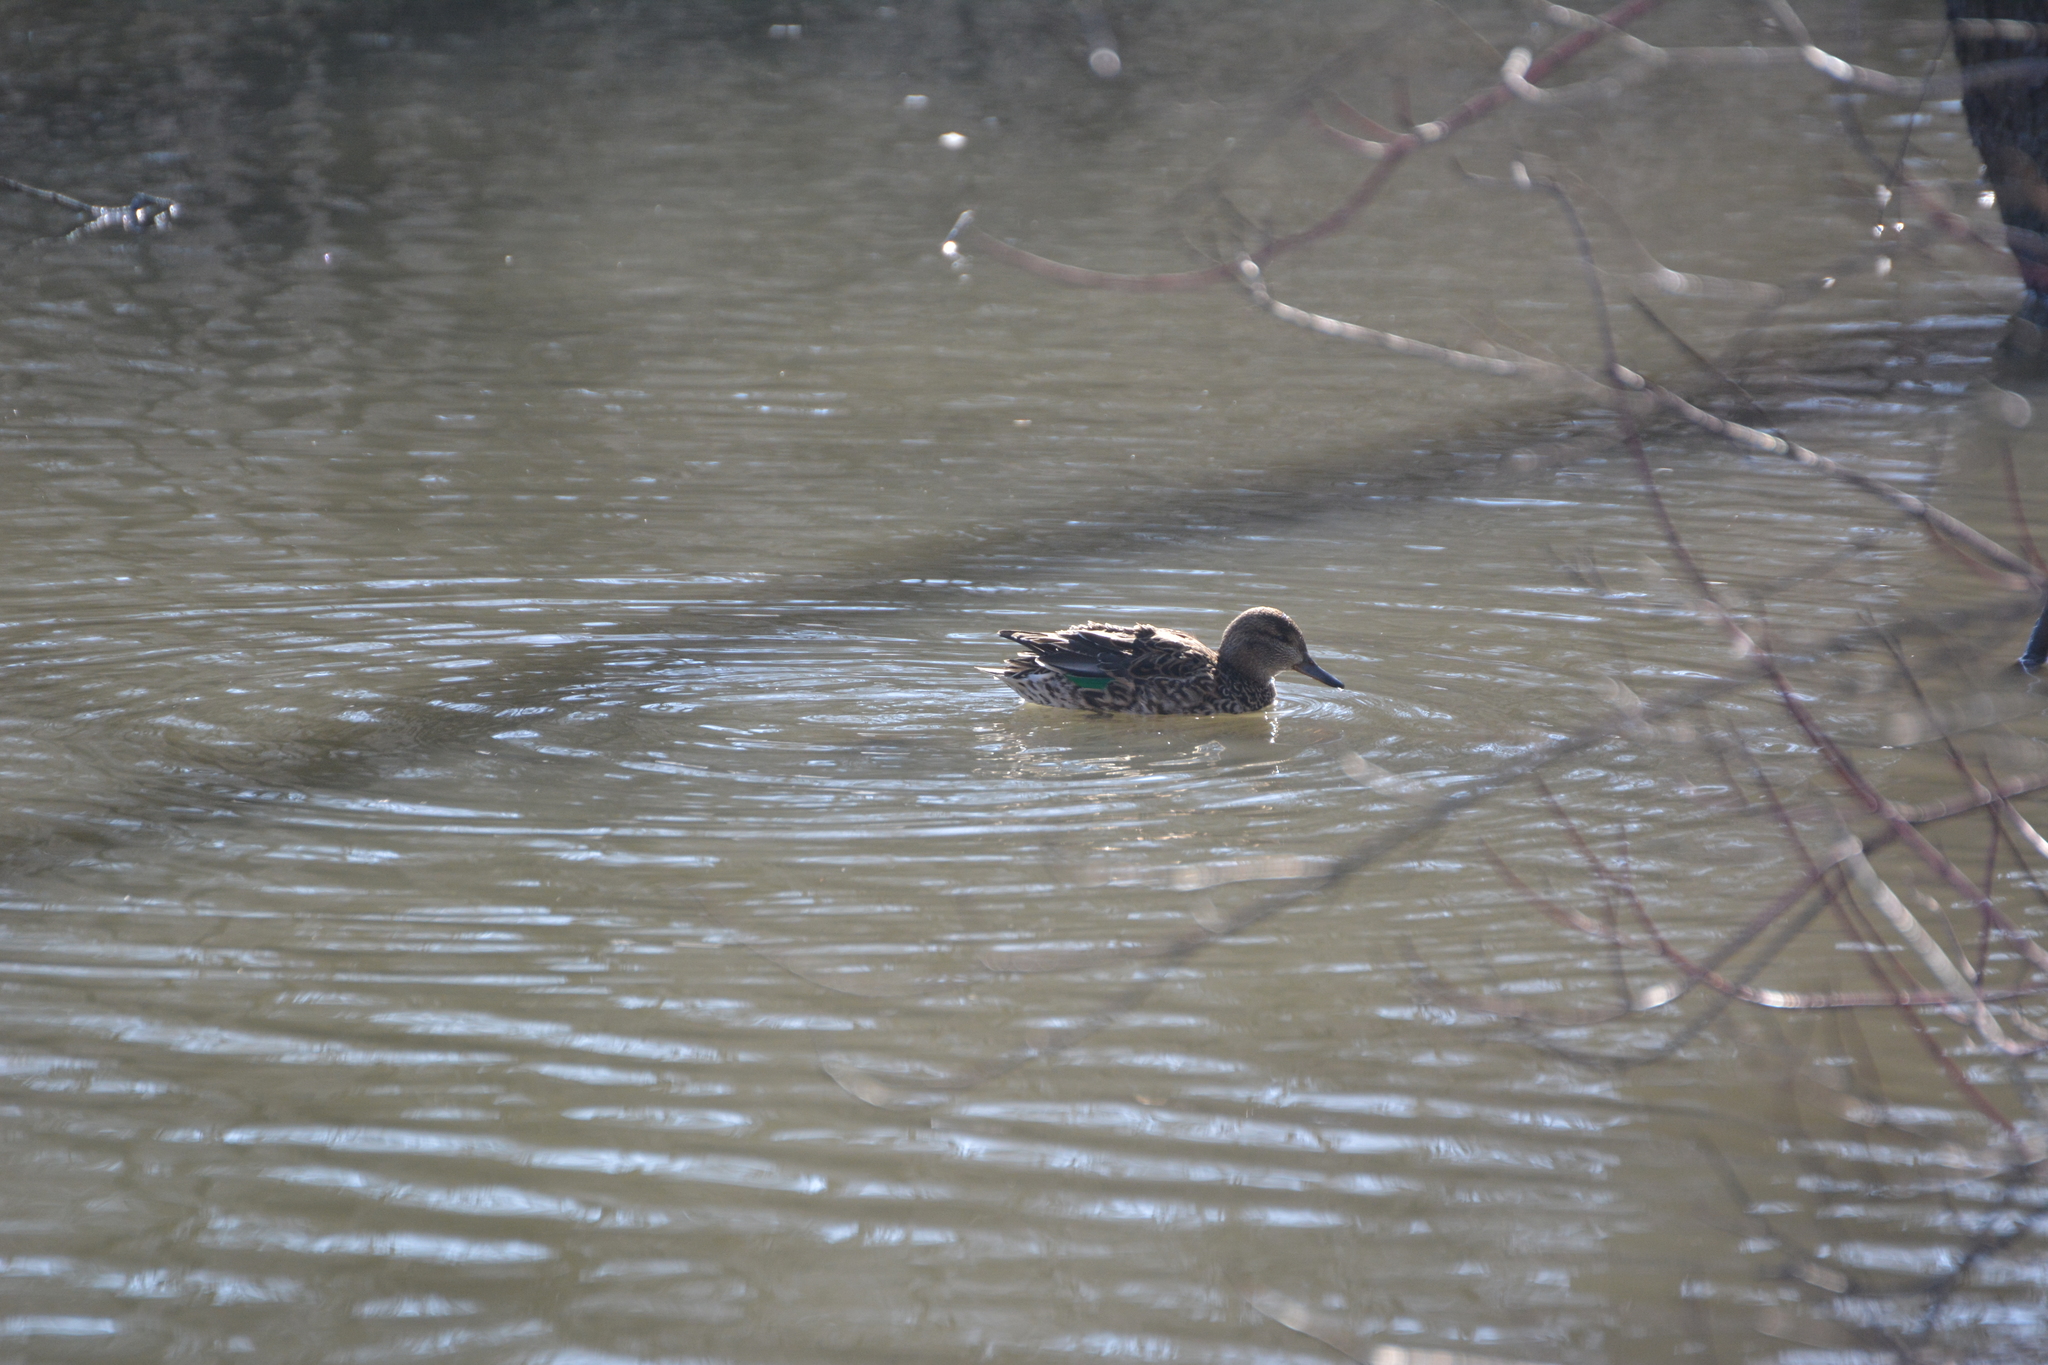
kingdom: Animalia
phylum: Chordata
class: Aves
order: Anseriformes
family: Anatidae
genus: Anas
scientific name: Anas crecca
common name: Eurasian teal
